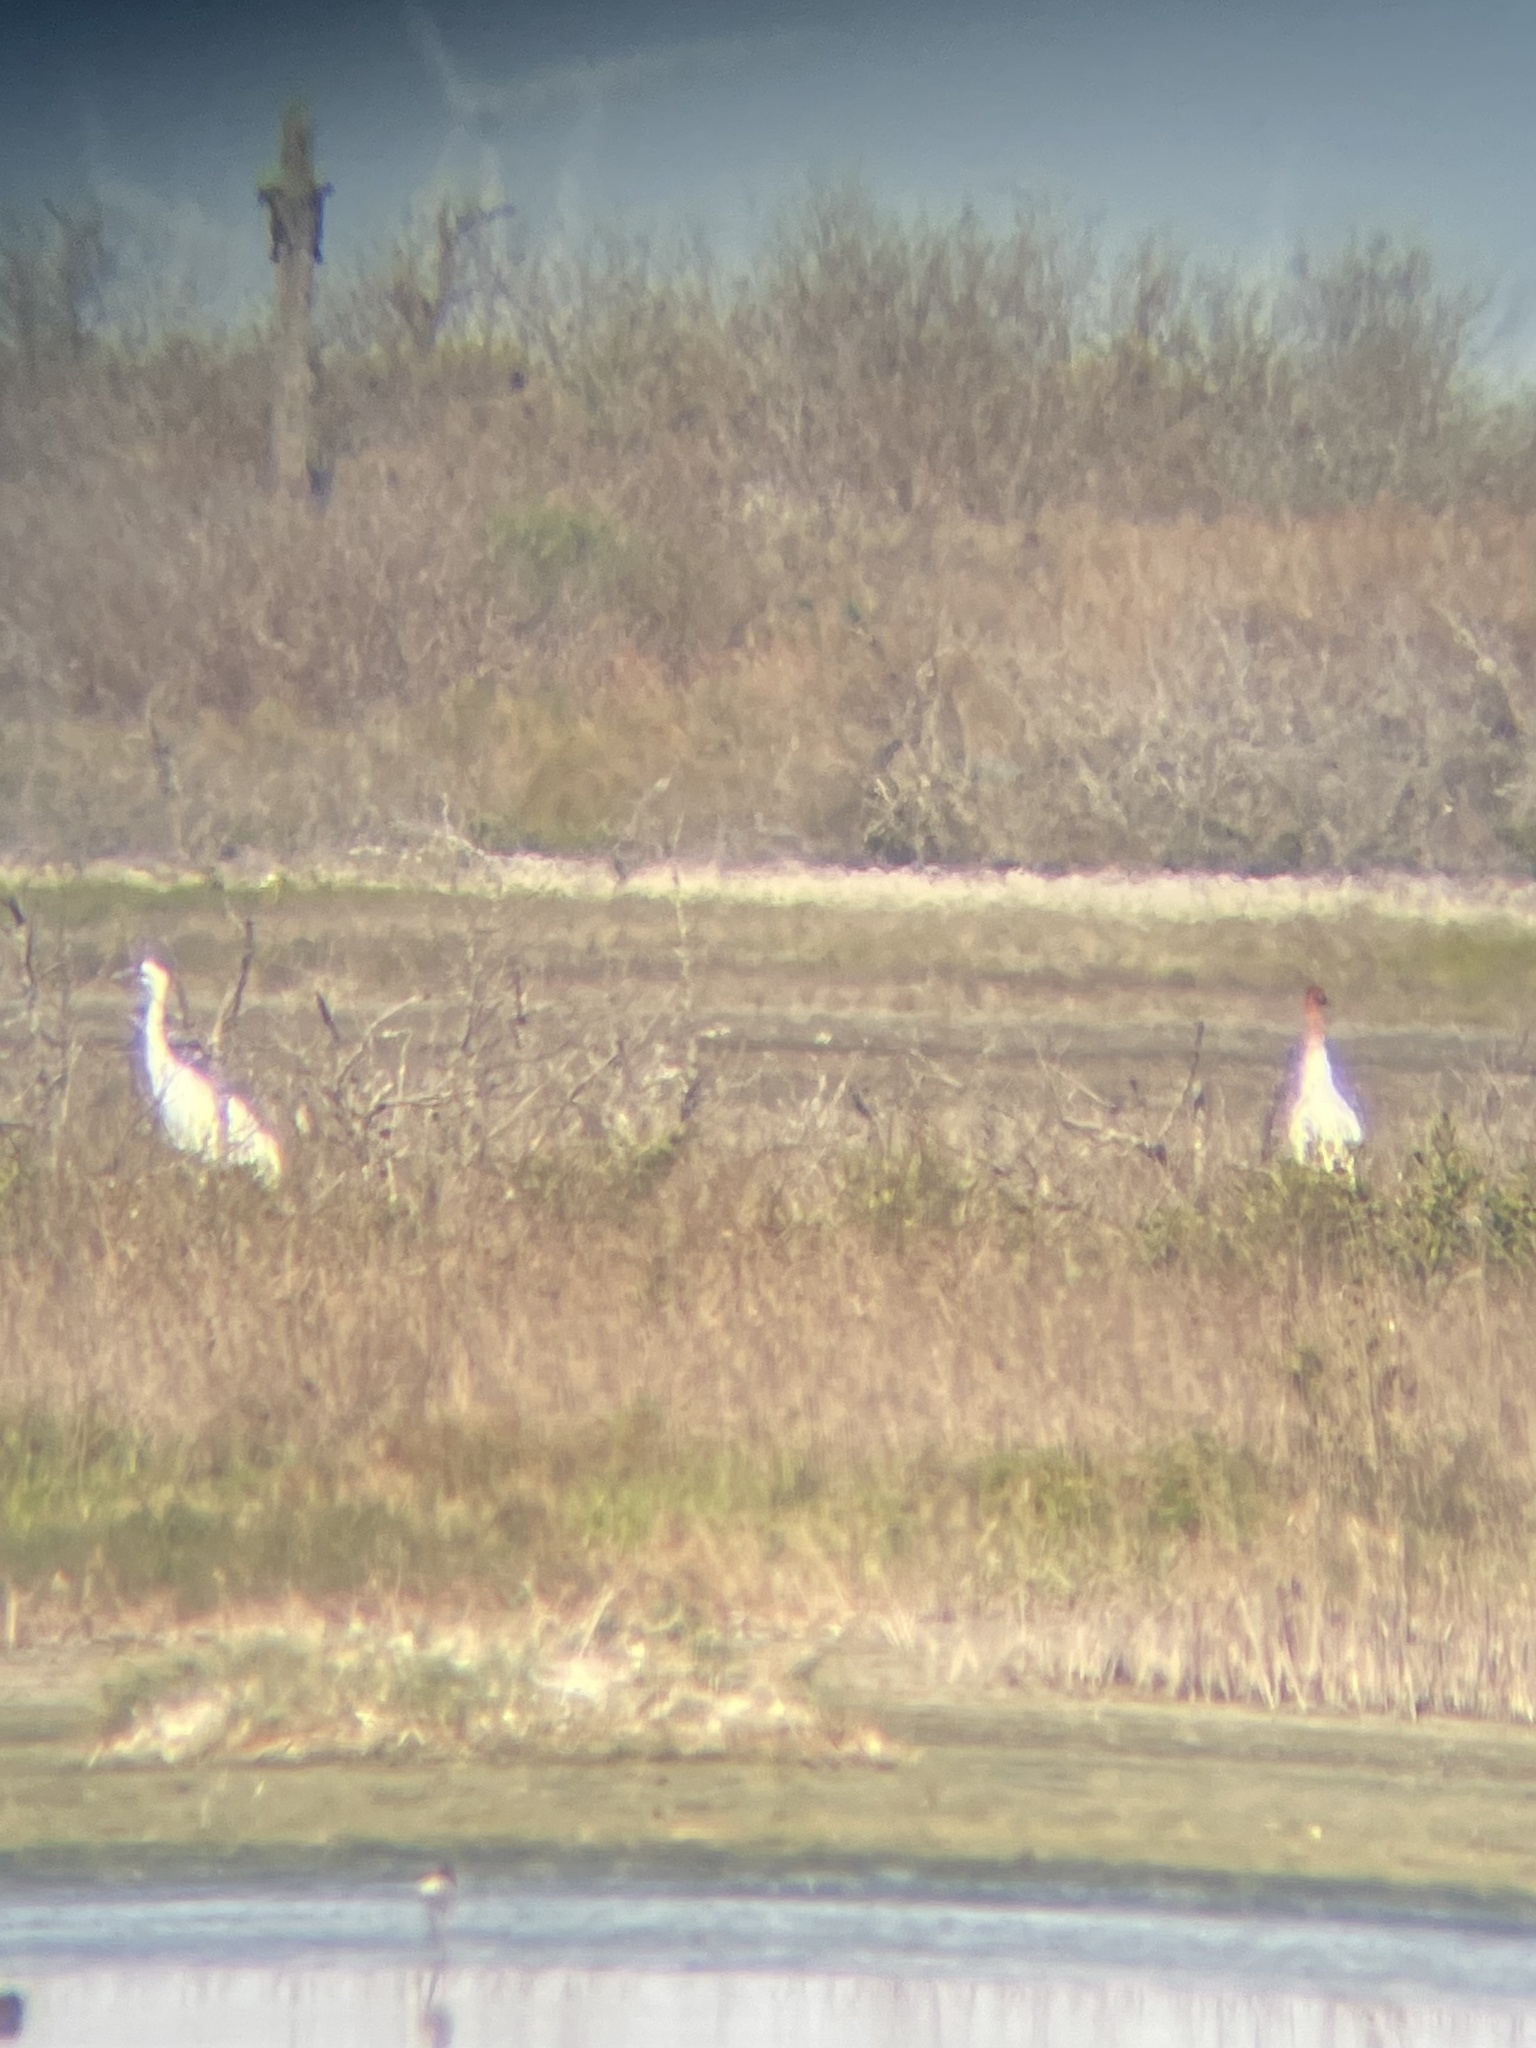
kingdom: Animalia
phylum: Chordata
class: Aves
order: Gruiformes
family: Gruidae
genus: Grus
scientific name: Grus americana
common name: Whooping crane
